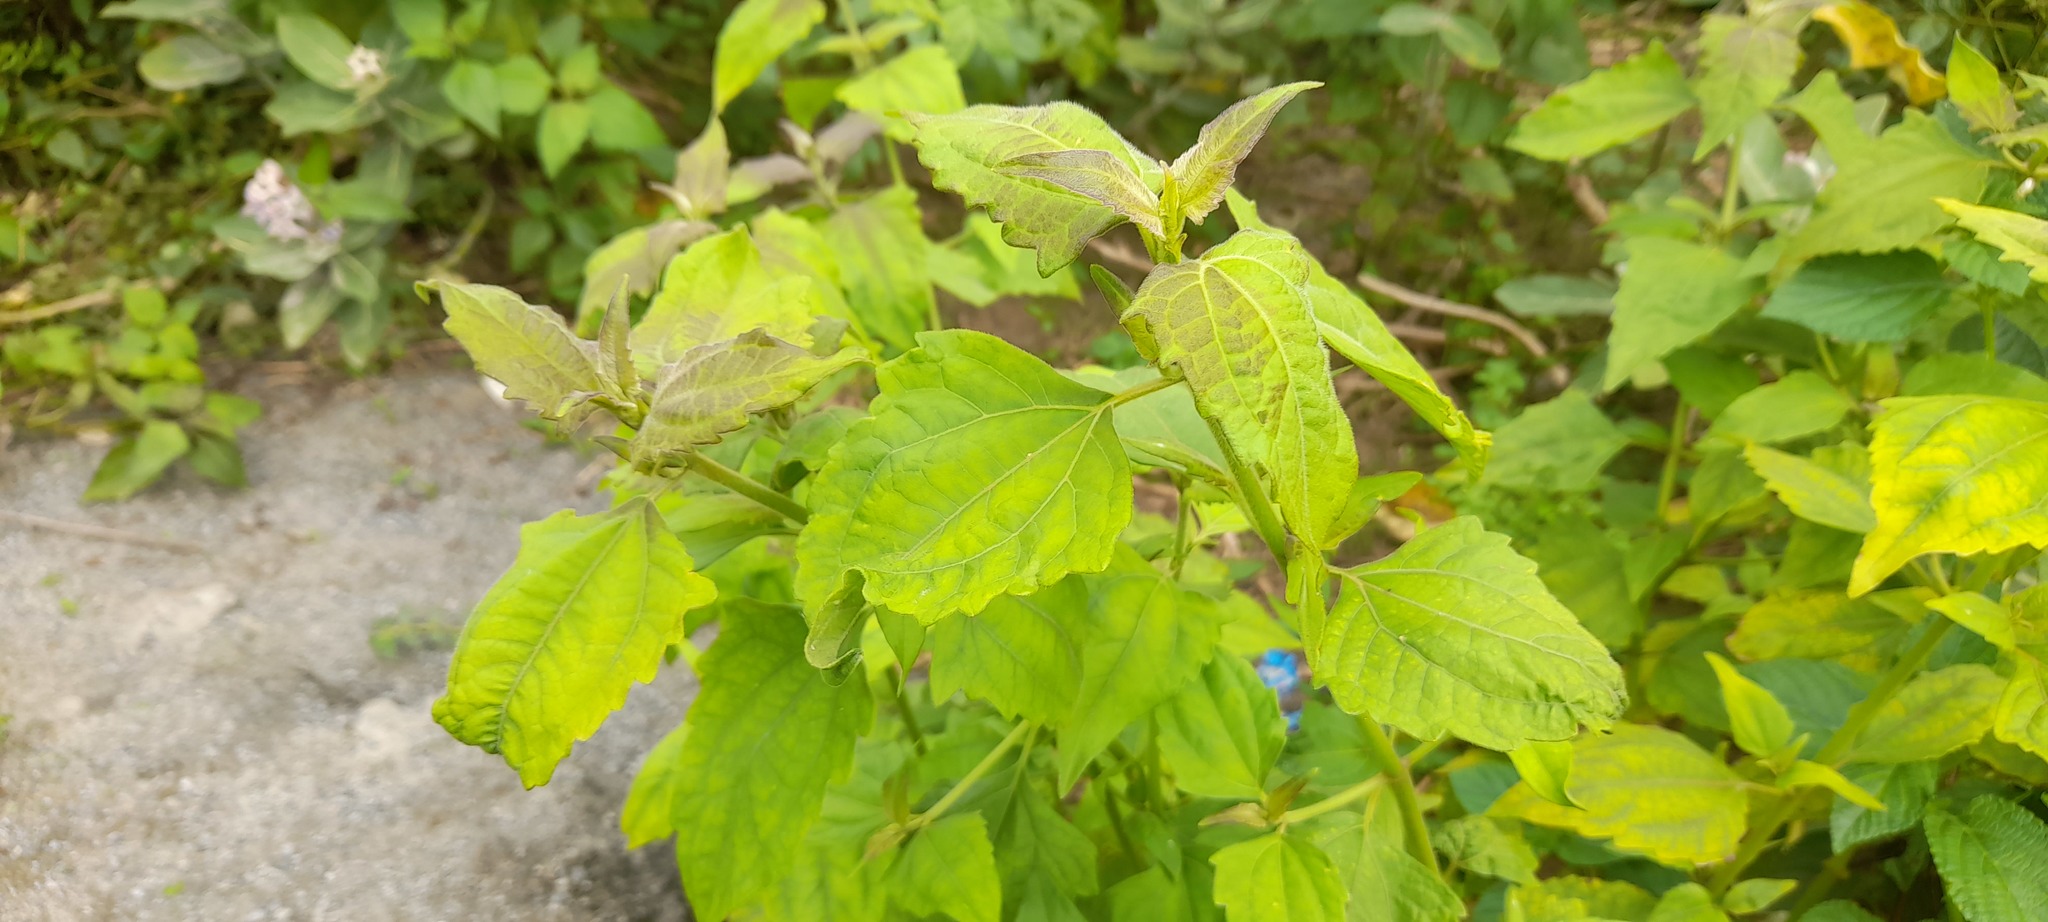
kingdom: Plantae
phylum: Tracheophyta
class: Magnoliopsida
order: Asterales
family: Asteraceae
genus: Chromolaena
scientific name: Chromolaena odorata
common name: Siamweed
